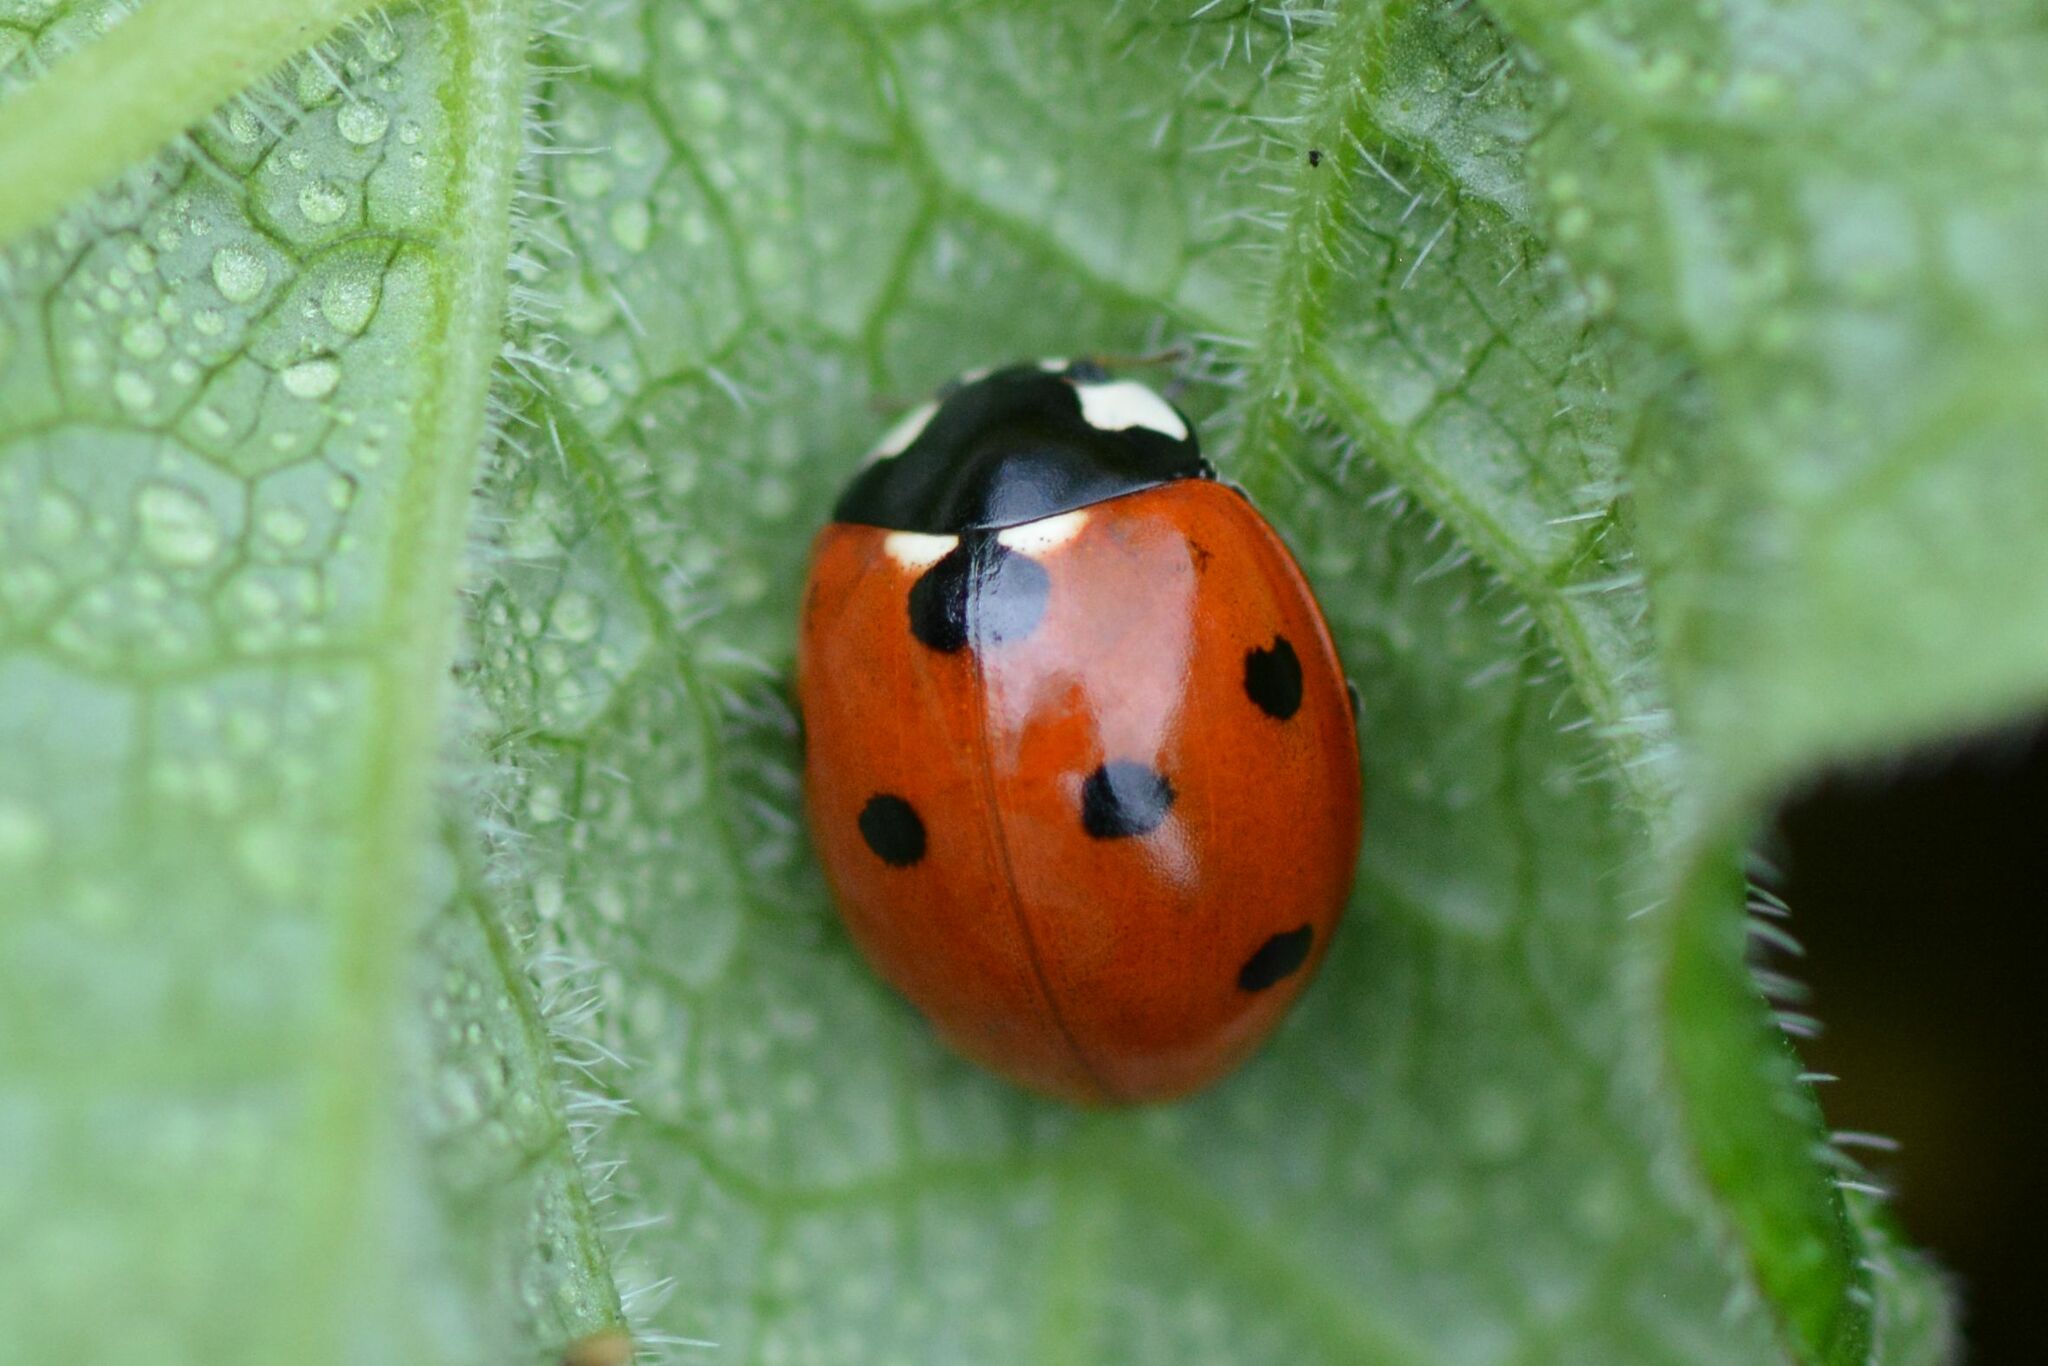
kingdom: Animalia
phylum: Arthropoda
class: Insecta
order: Coleoptera
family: Coccinellidae
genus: Coccinella
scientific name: Coccinella septempunctata
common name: Sevenspotted lady beetle
